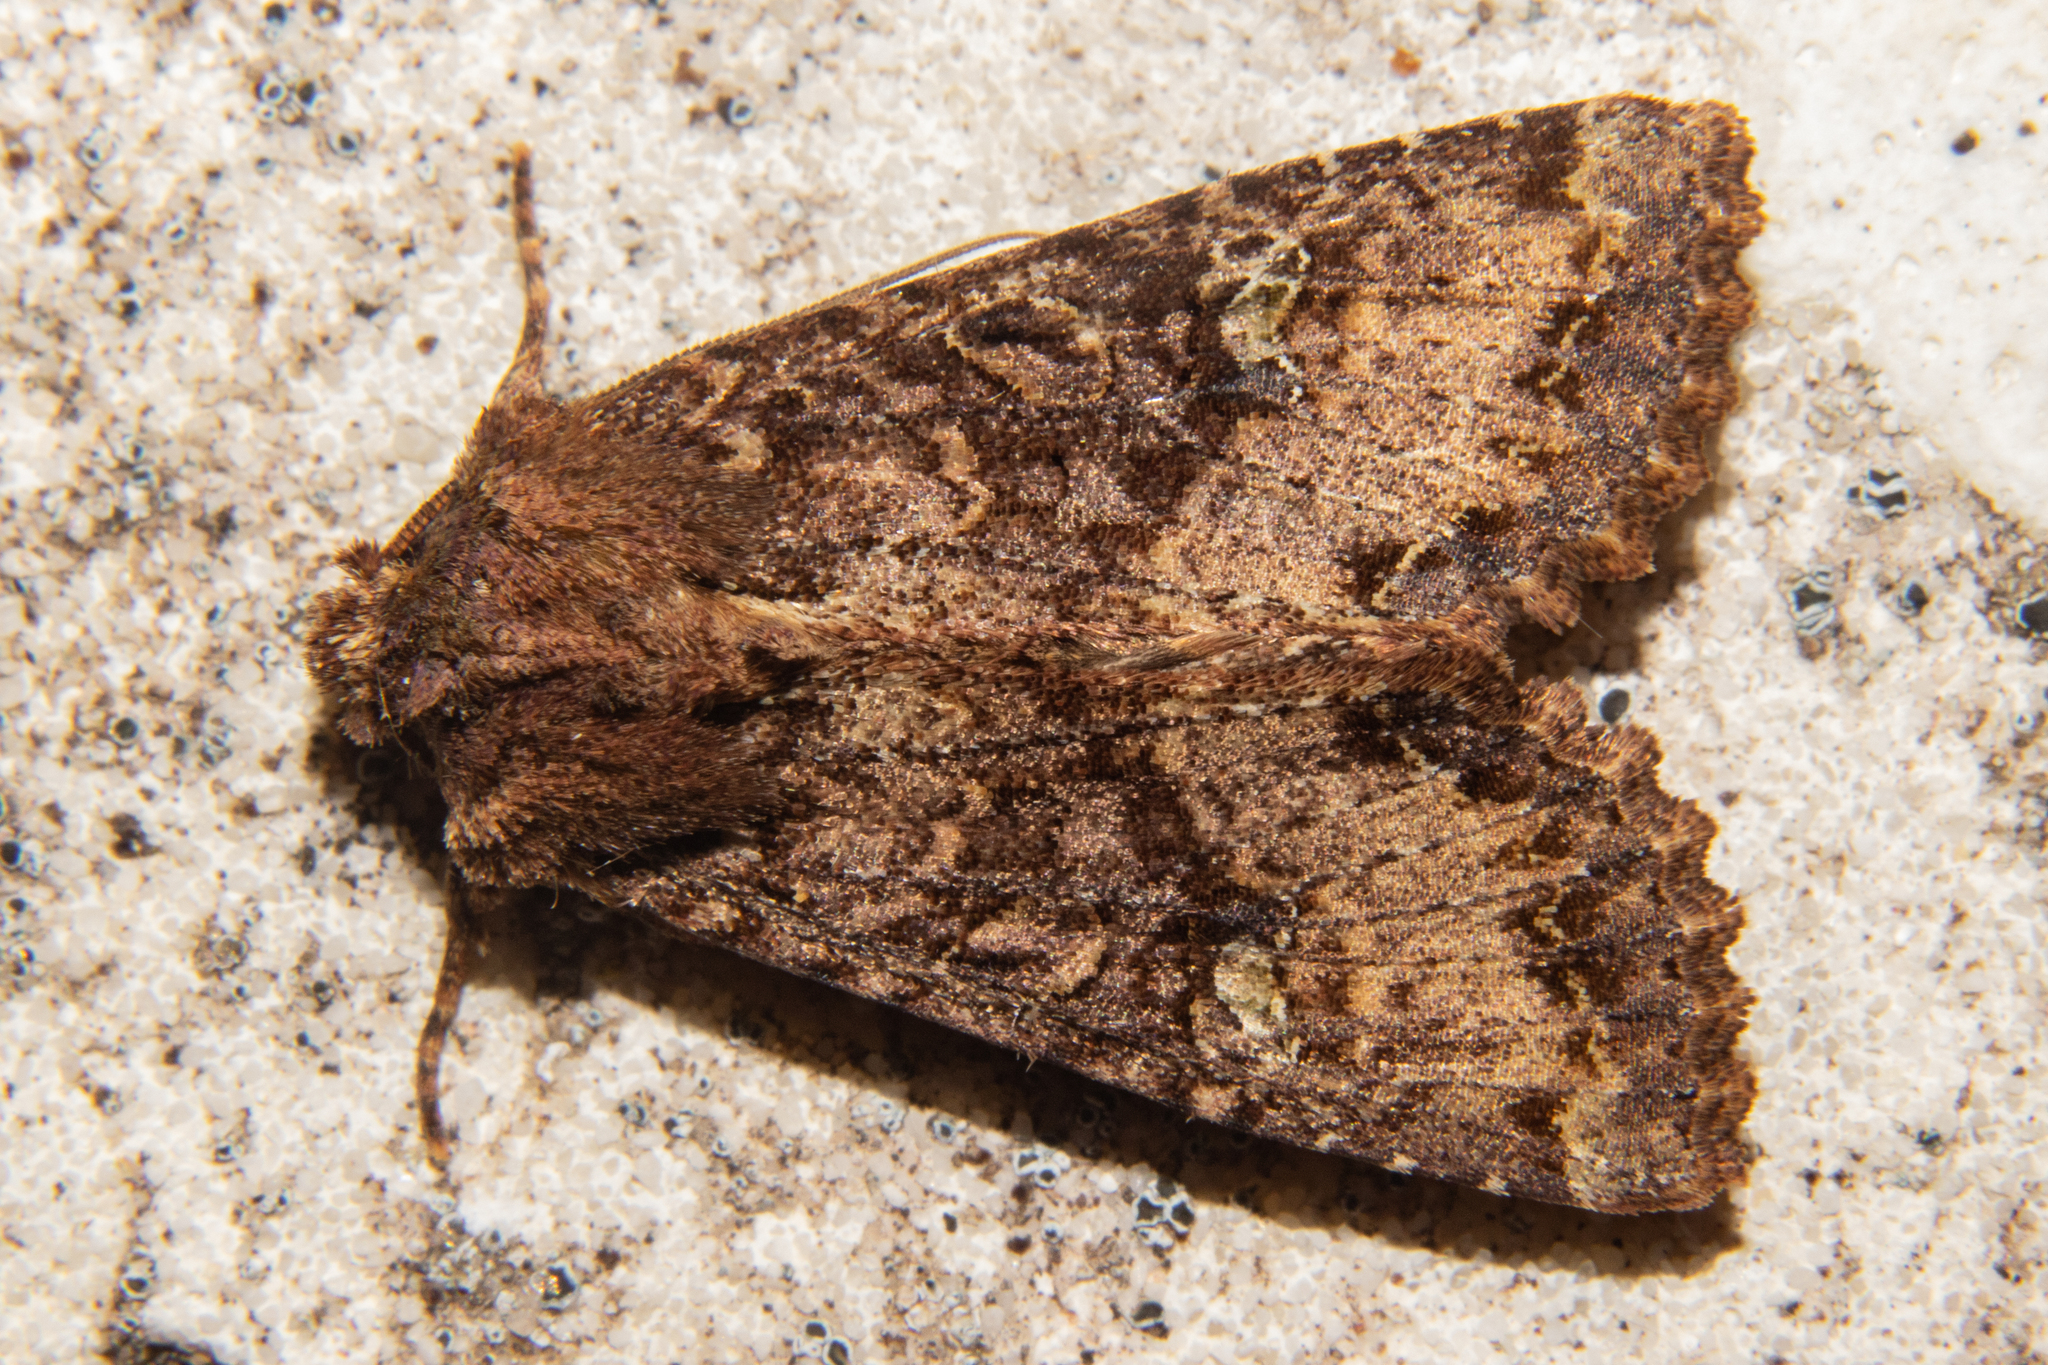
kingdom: Animalia
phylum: Arthropoda
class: Insecta
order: Lepidoptera
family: Noctuidae
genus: Meterana
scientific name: Meterana
